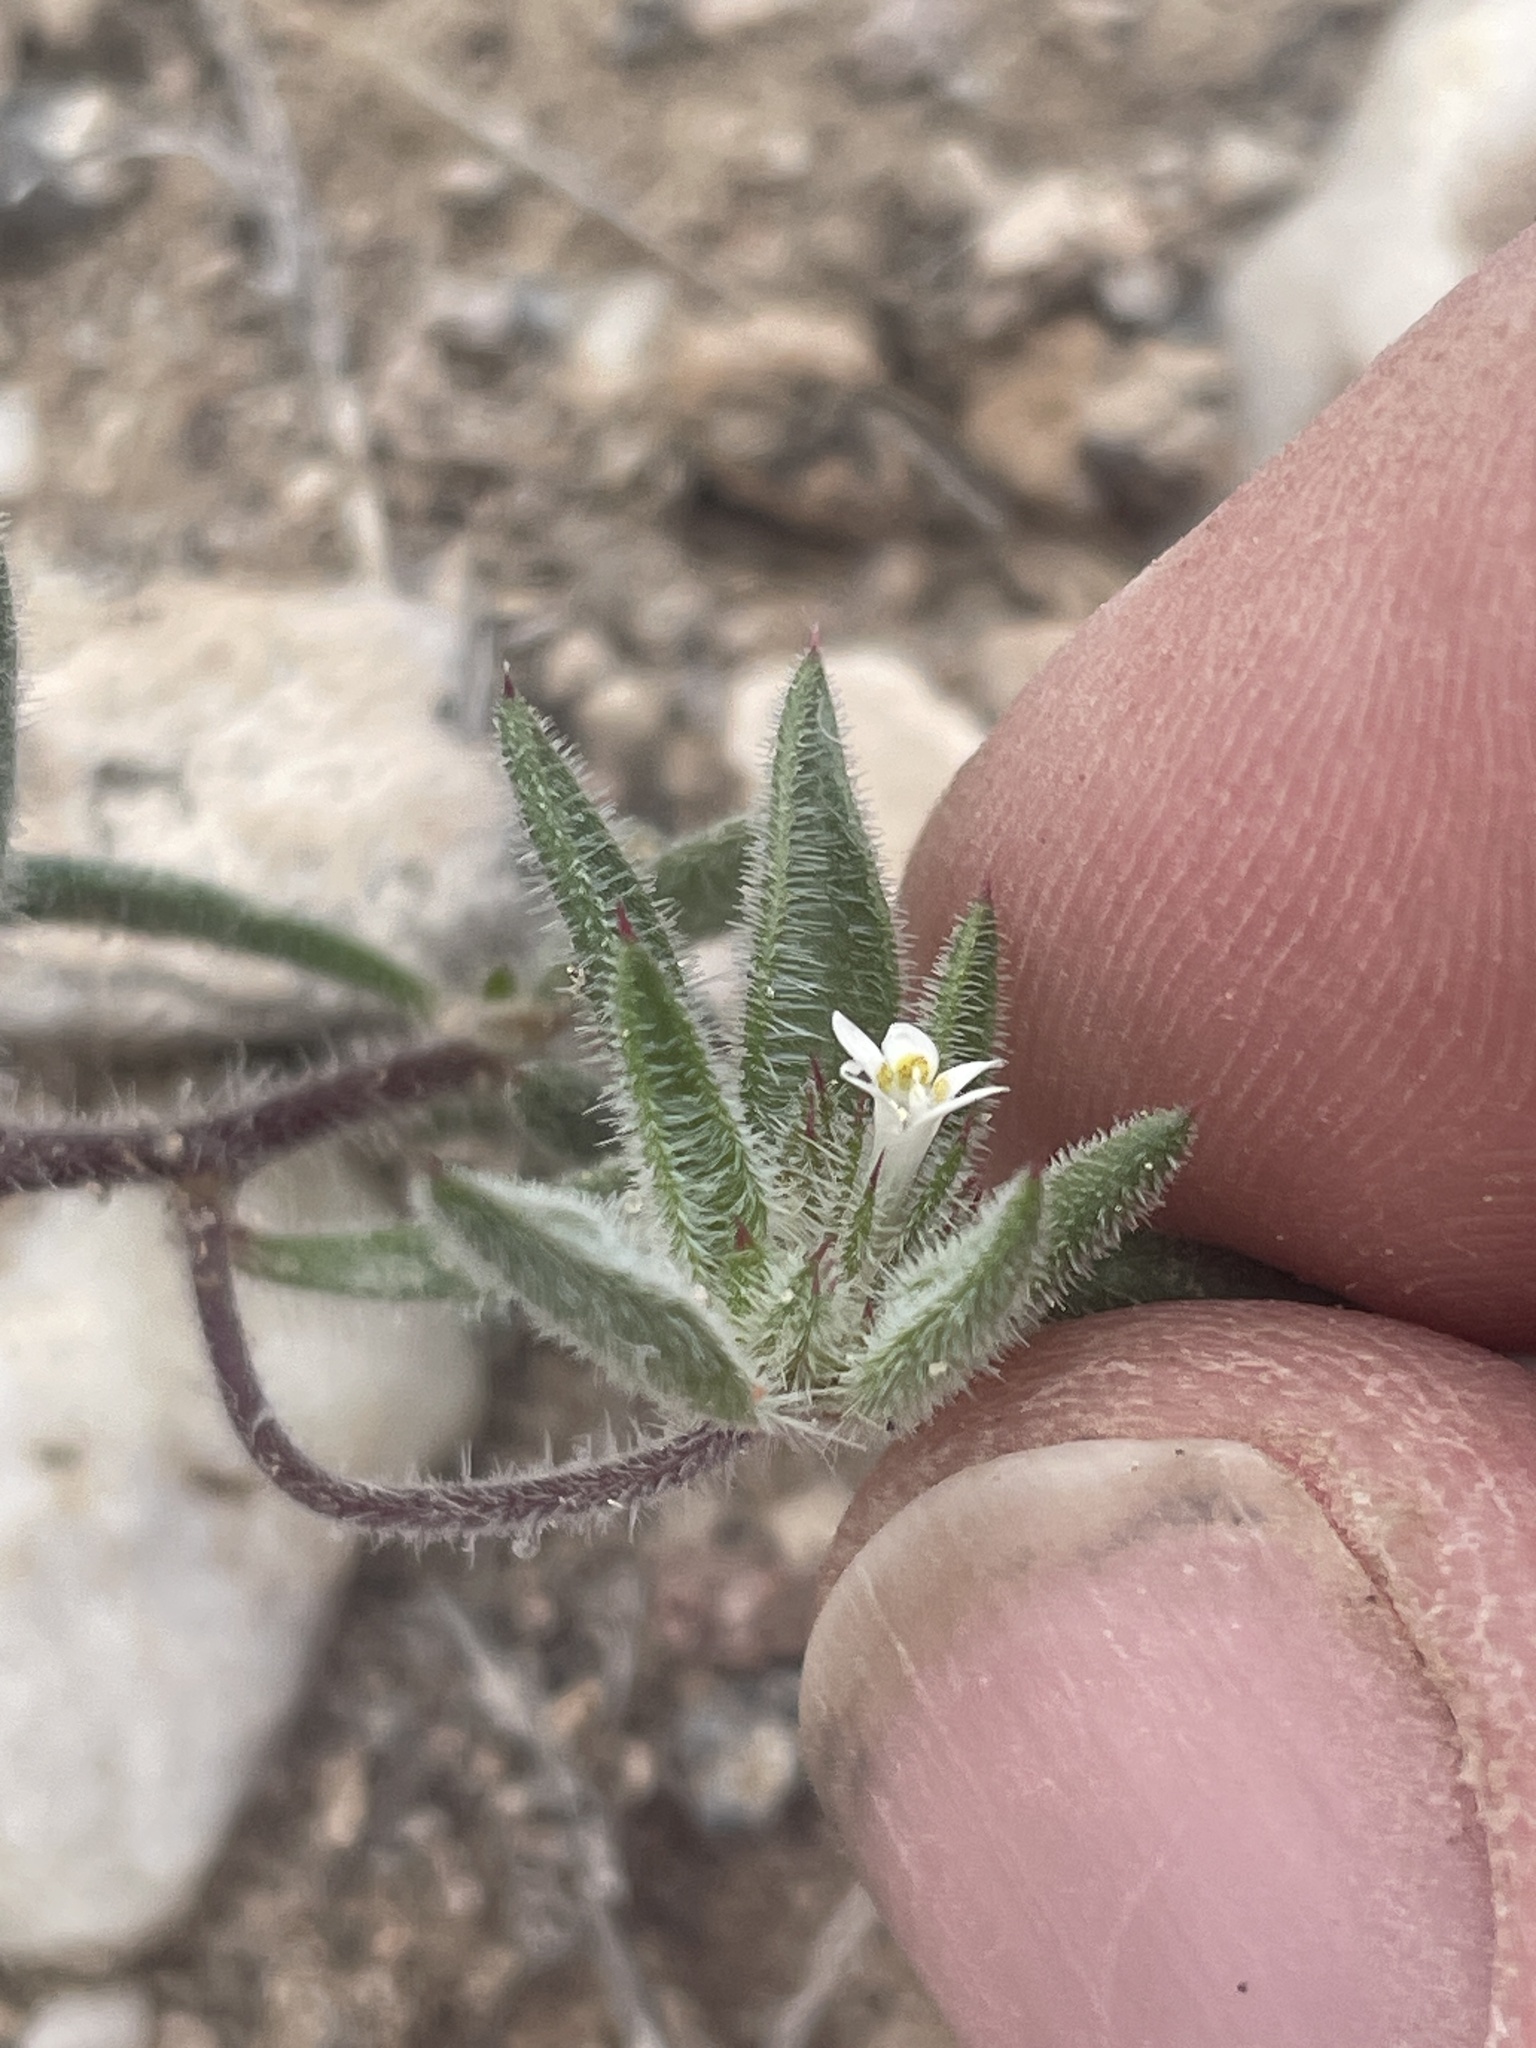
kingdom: Plantae
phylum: Tracheophyta
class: Magnoliopsida
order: Ericales
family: Polemoniaceae
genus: Loeseliastrum
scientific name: Loeseliastrum depressum
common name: Depressed ipomopsis
